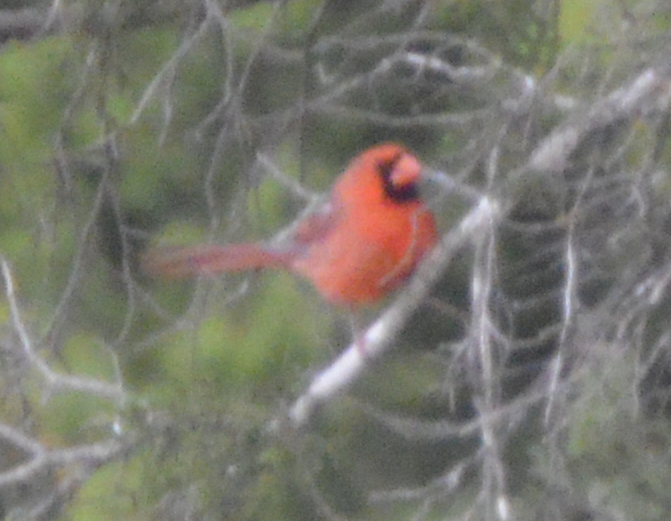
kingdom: Animalia
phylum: Chordata
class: Aves
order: Passeriformes
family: Cardinalidae
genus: Cardinalis
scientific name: Cardinalis cardinalis
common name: Northern cardinal
